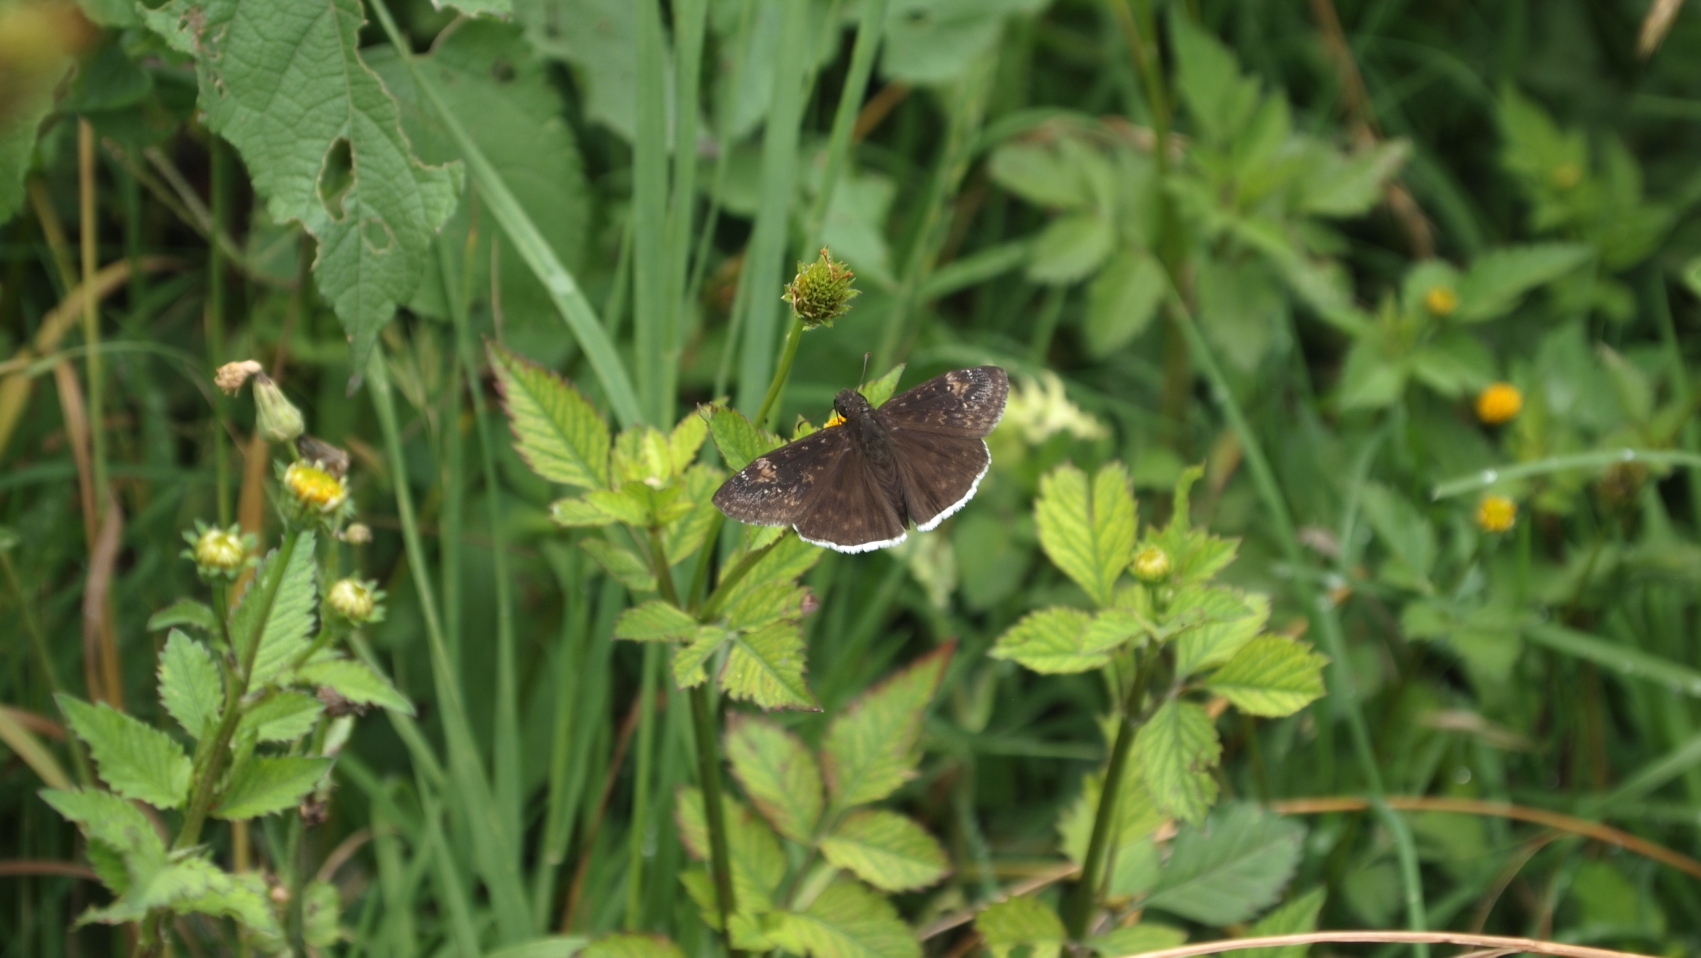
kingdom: Animalia
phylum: Arthropoda
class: Insecta
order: Lepidoptera
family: Hesperiidae
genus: Erynnis
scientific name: Erynnis funeralis
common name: Funereal duskywing
